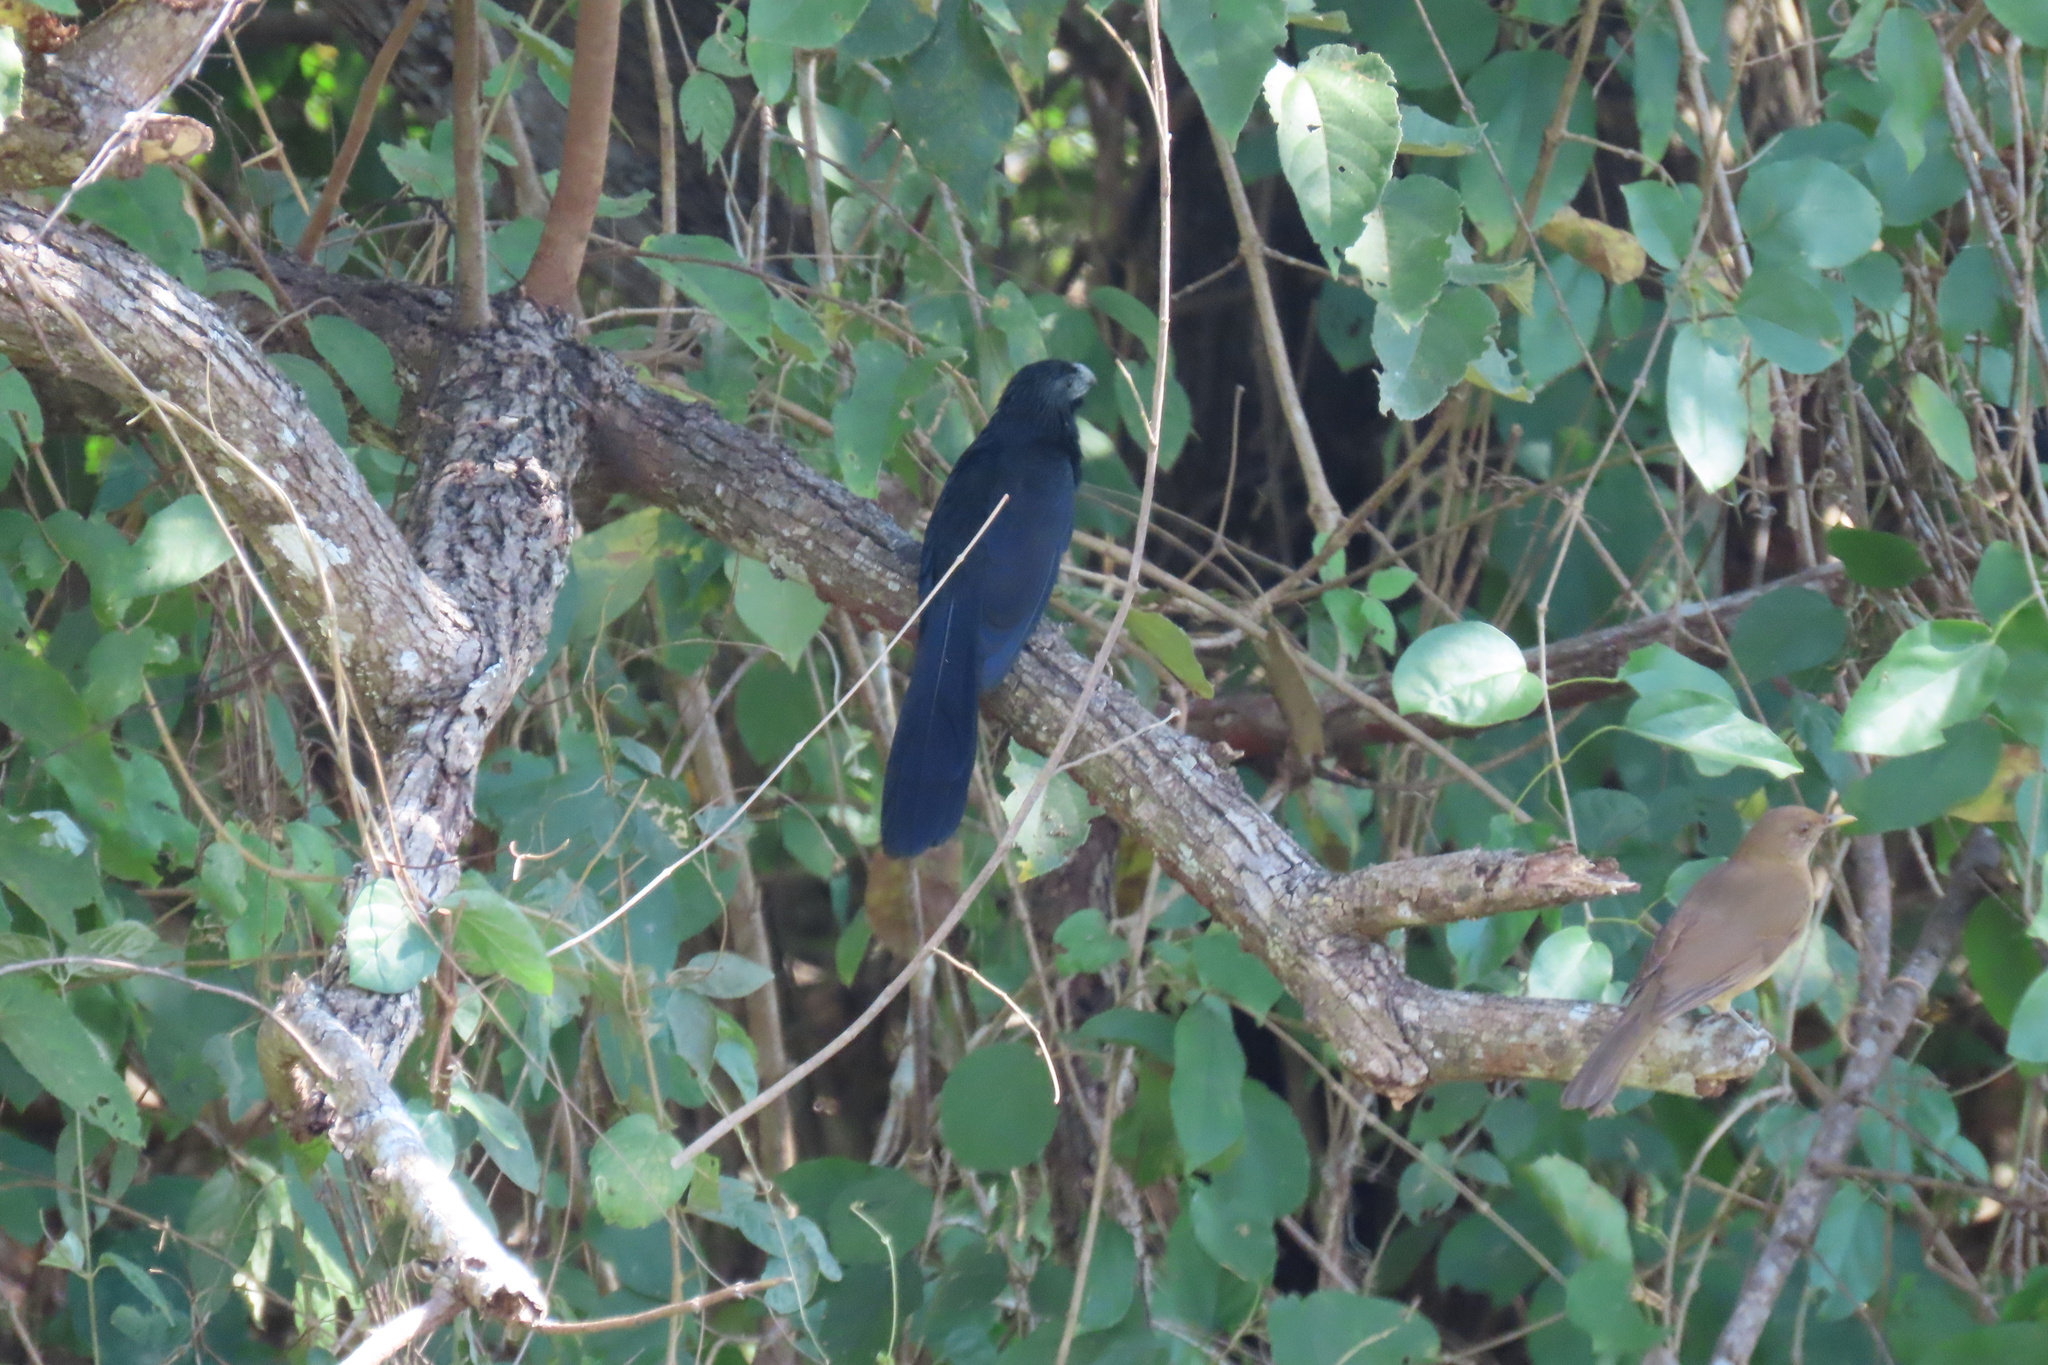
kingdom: Animalia
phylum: Chordata
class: Aves
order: Cuculiformes
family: Cuculidae
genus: Crotophaga
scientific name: Crotophaga sulcirostris
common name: Groove-billed ani
